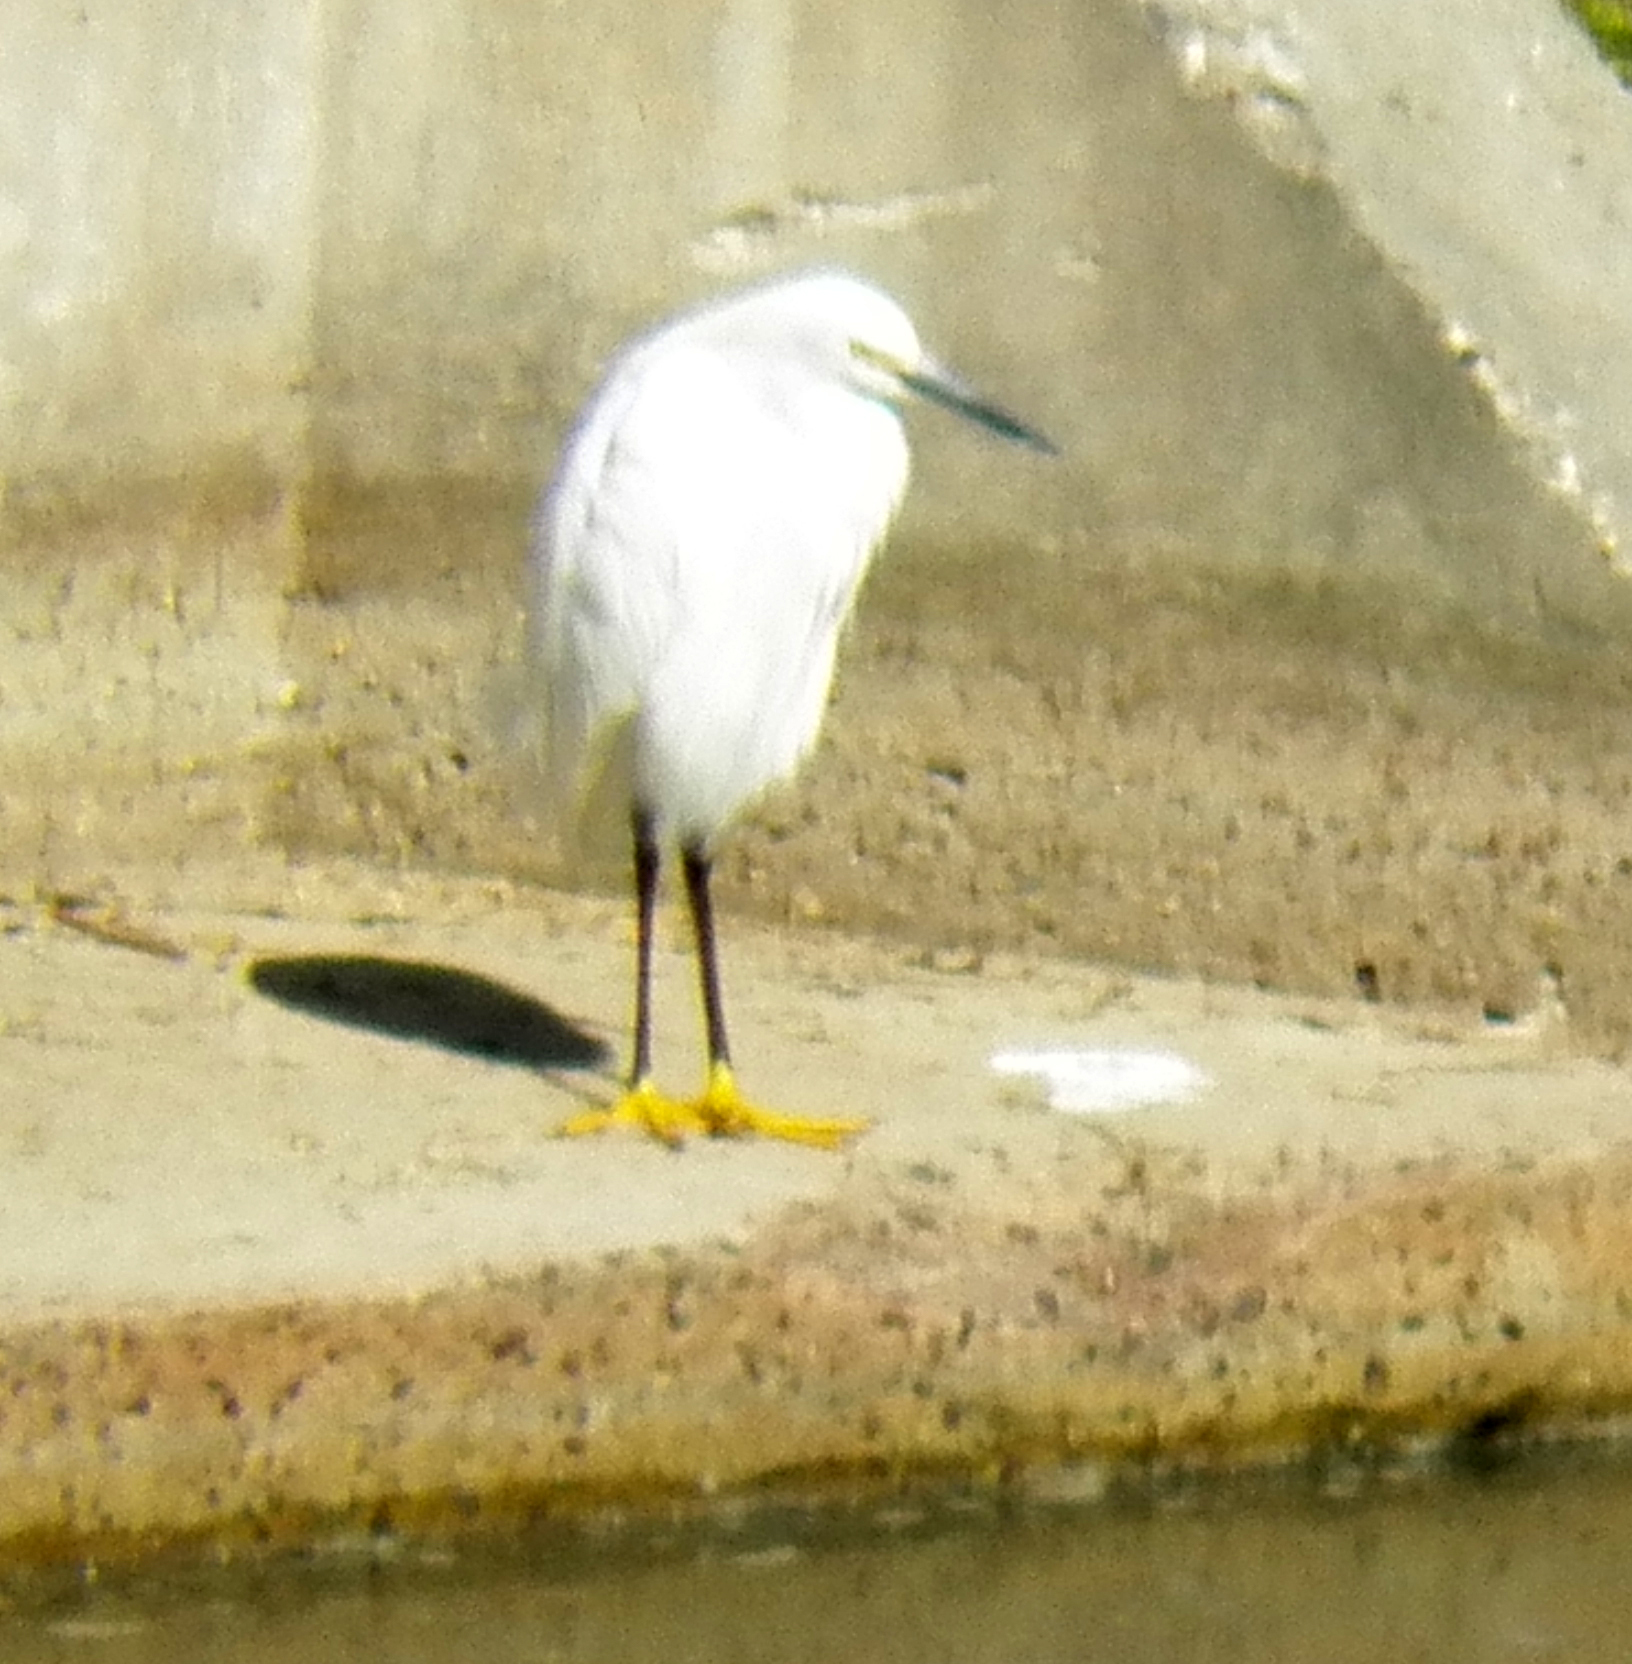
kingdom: Animalia
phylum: Chordata
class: Aves
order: Pelecaniformes
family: Ardeidae
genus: Egretta
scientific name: Egretta thula
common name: Snowy egret
